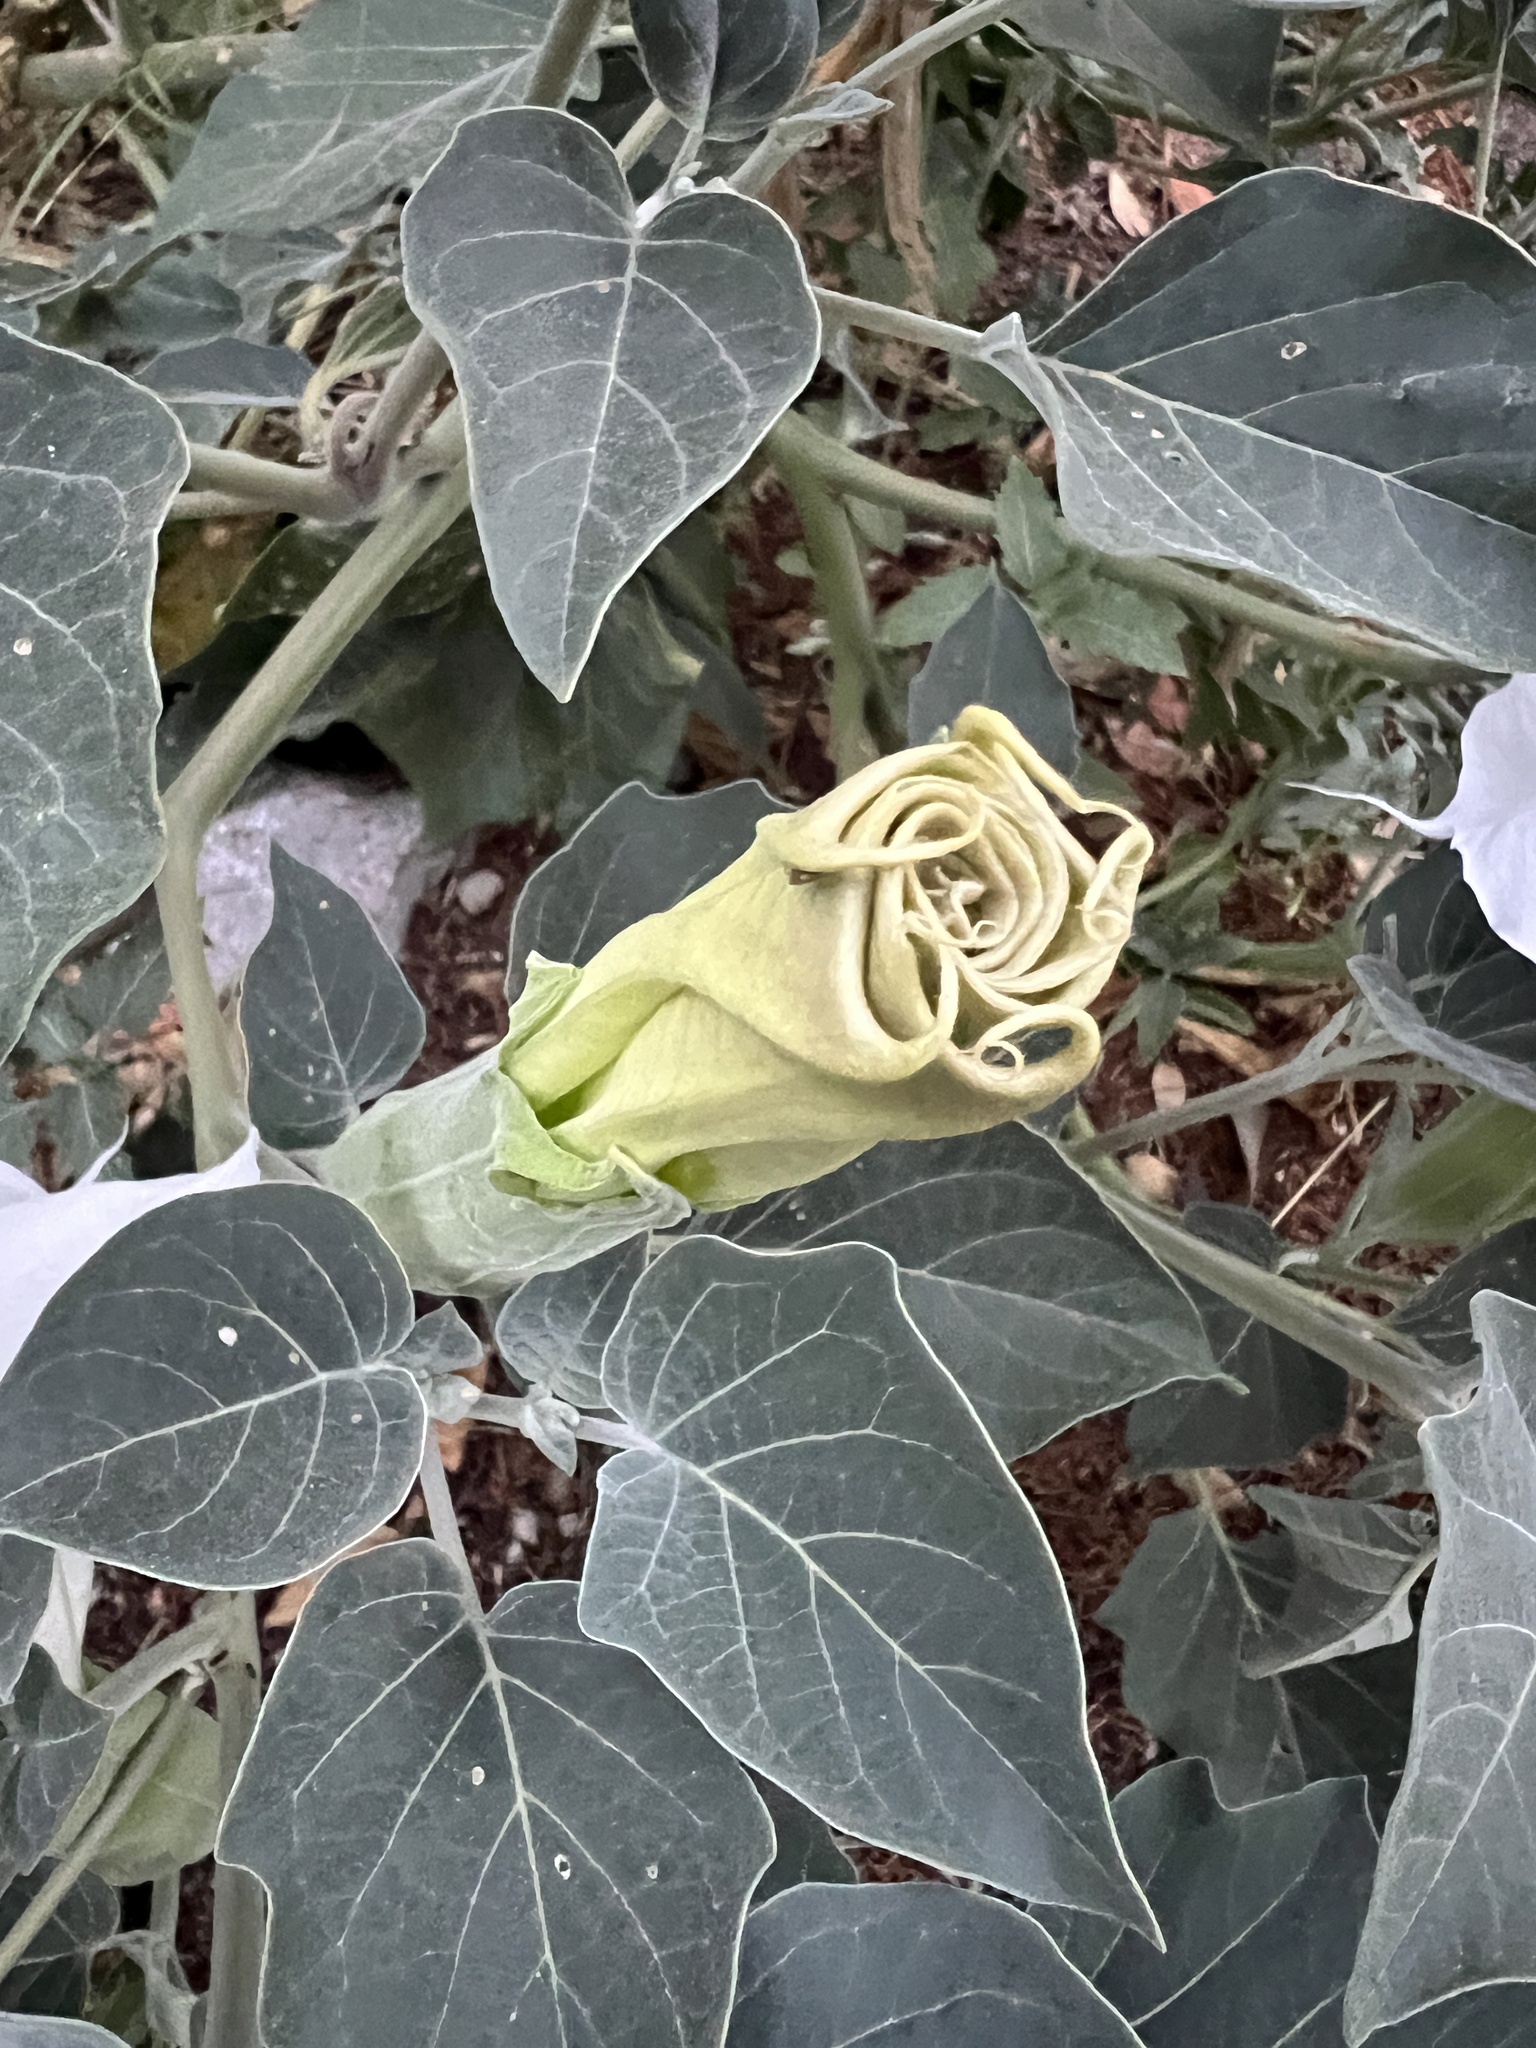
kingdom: Plantae
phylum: Tracheophyta
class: Magnoliopsida
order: Solanales
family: Solanaceae
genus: Datura
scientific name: Datura wrightii
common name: Sacred thorn-apple
